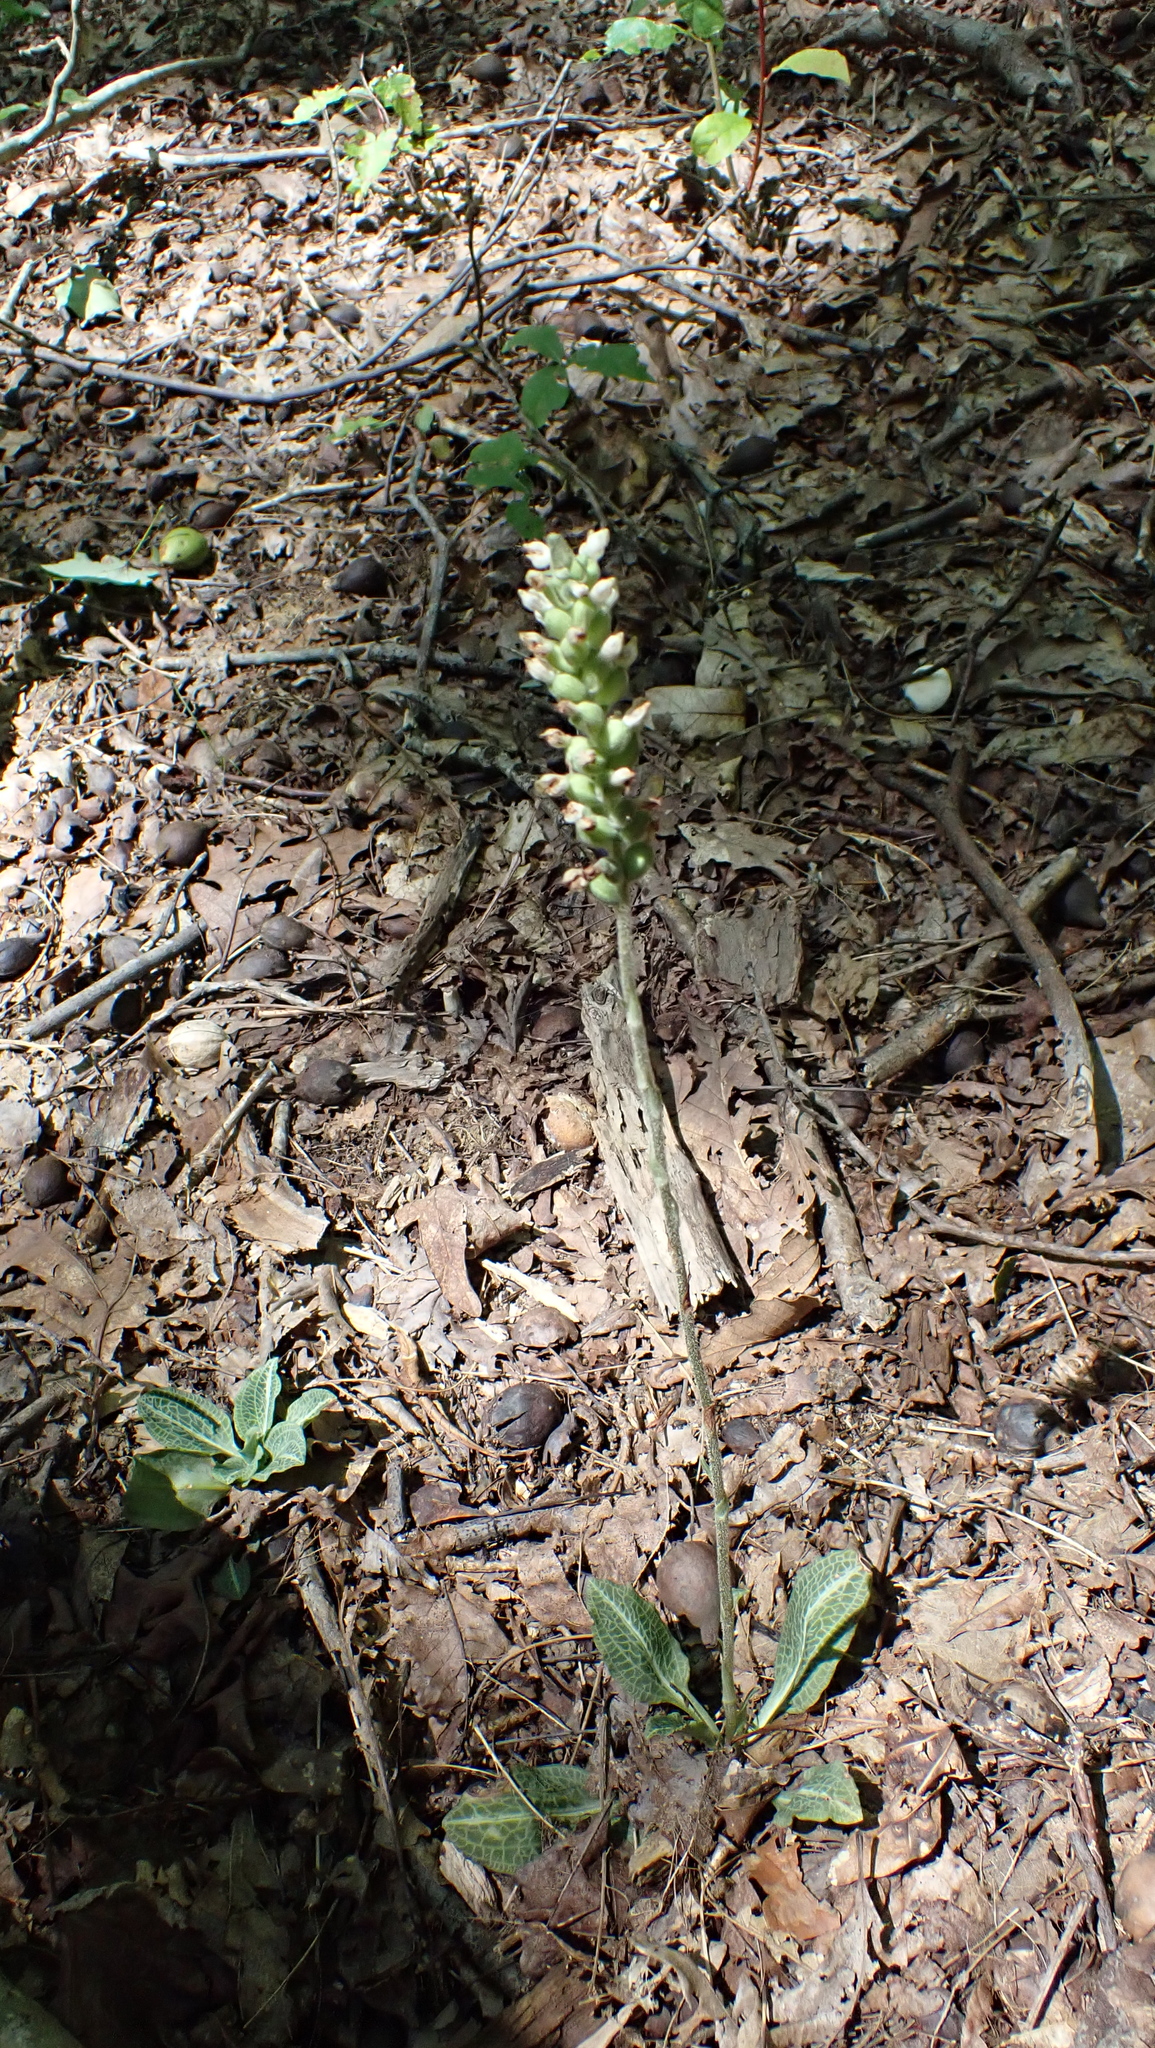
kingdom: Plantae
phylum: Tracheophyta
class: Liliopsida
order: Asparagales
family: Orchidaceae
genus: Goodyera
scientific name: Goodyera pubescens
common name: Downy rattlesnake-plantain
